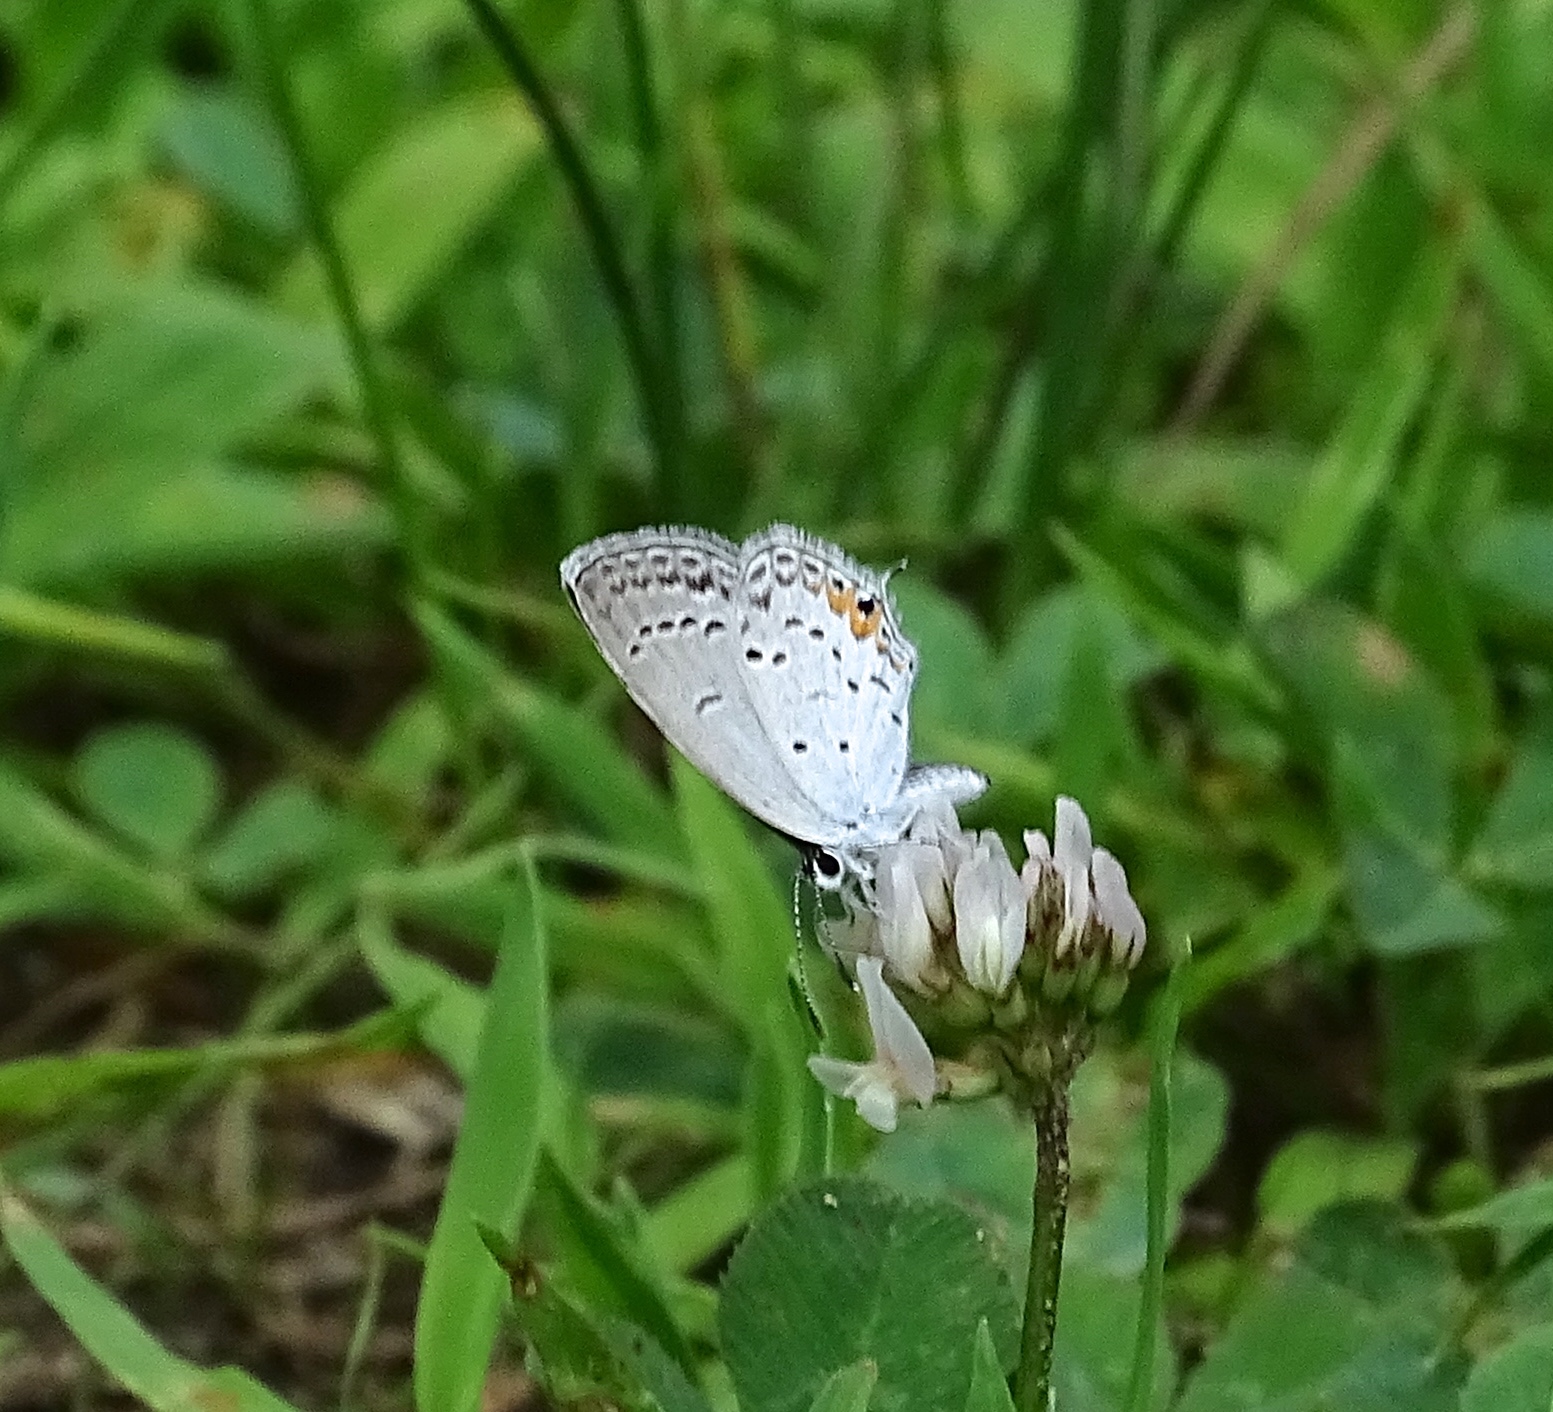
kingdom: Animalia
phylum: Arthropoda
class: Insecta
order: Lepidoptera
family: Lycaenidae
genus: Elkalyce
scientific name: Elkalyce comyntas
